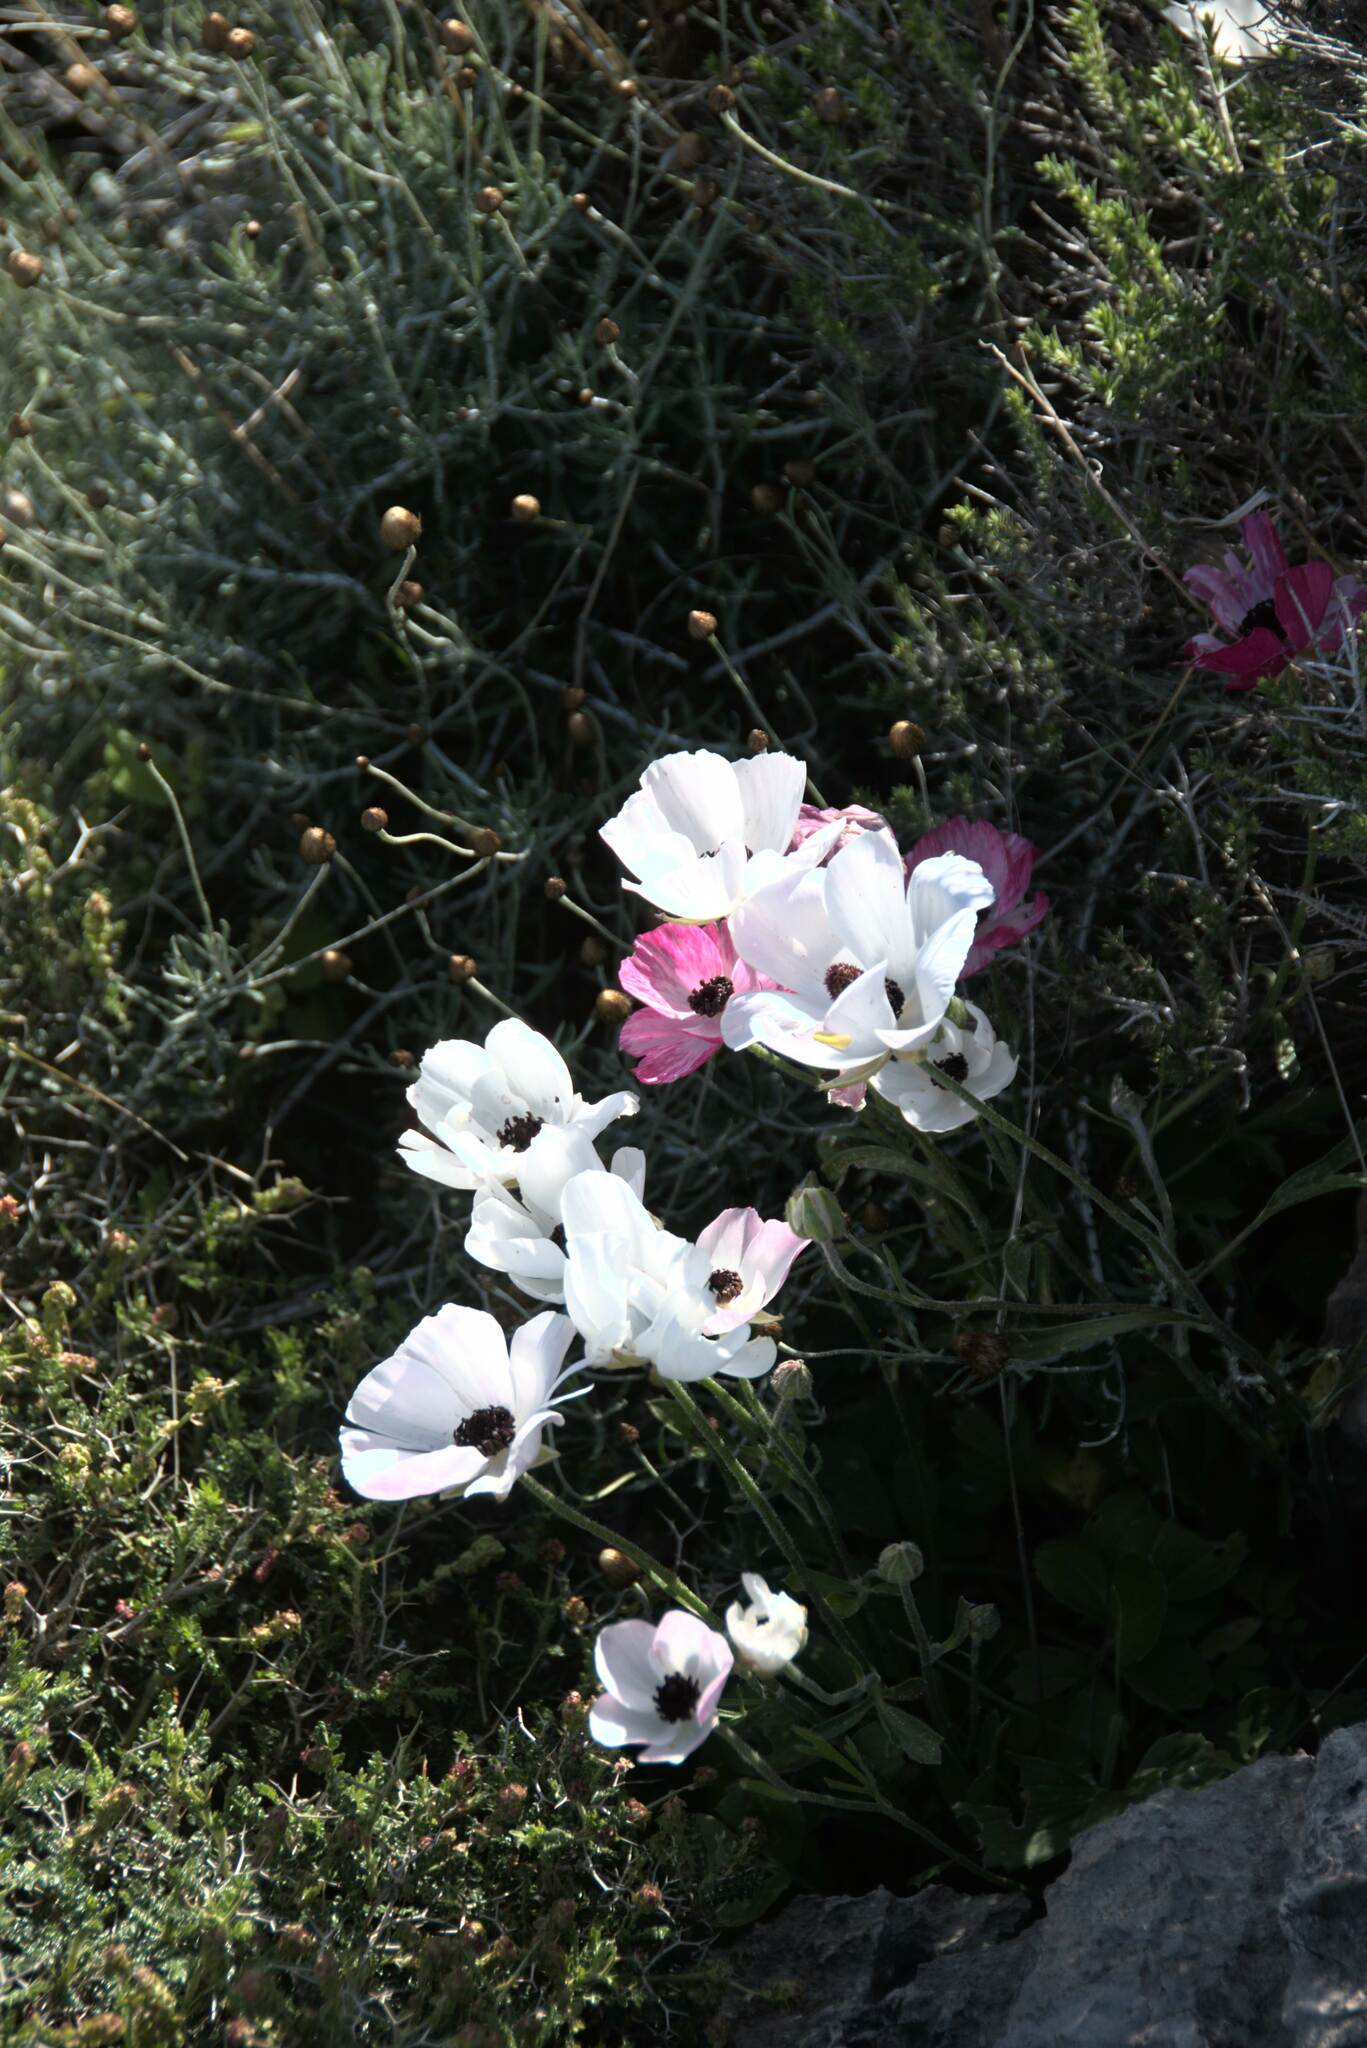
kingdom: Plantae
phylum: Tracheophyta
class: Magnoliopsida
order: Ranunculales
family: Ranunculaceae
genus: Ranunculus
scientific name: Ranunculus asiaticus
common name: Persian buttercup
